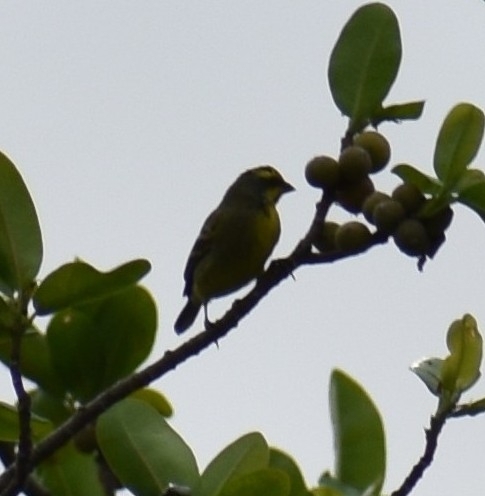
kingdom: Animalia
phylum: Chordata
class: Aves
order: Passeriformes
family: Fringillidae
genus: Crithagra
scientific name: Crithagra mozambica
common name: Yellow-fronted canary
